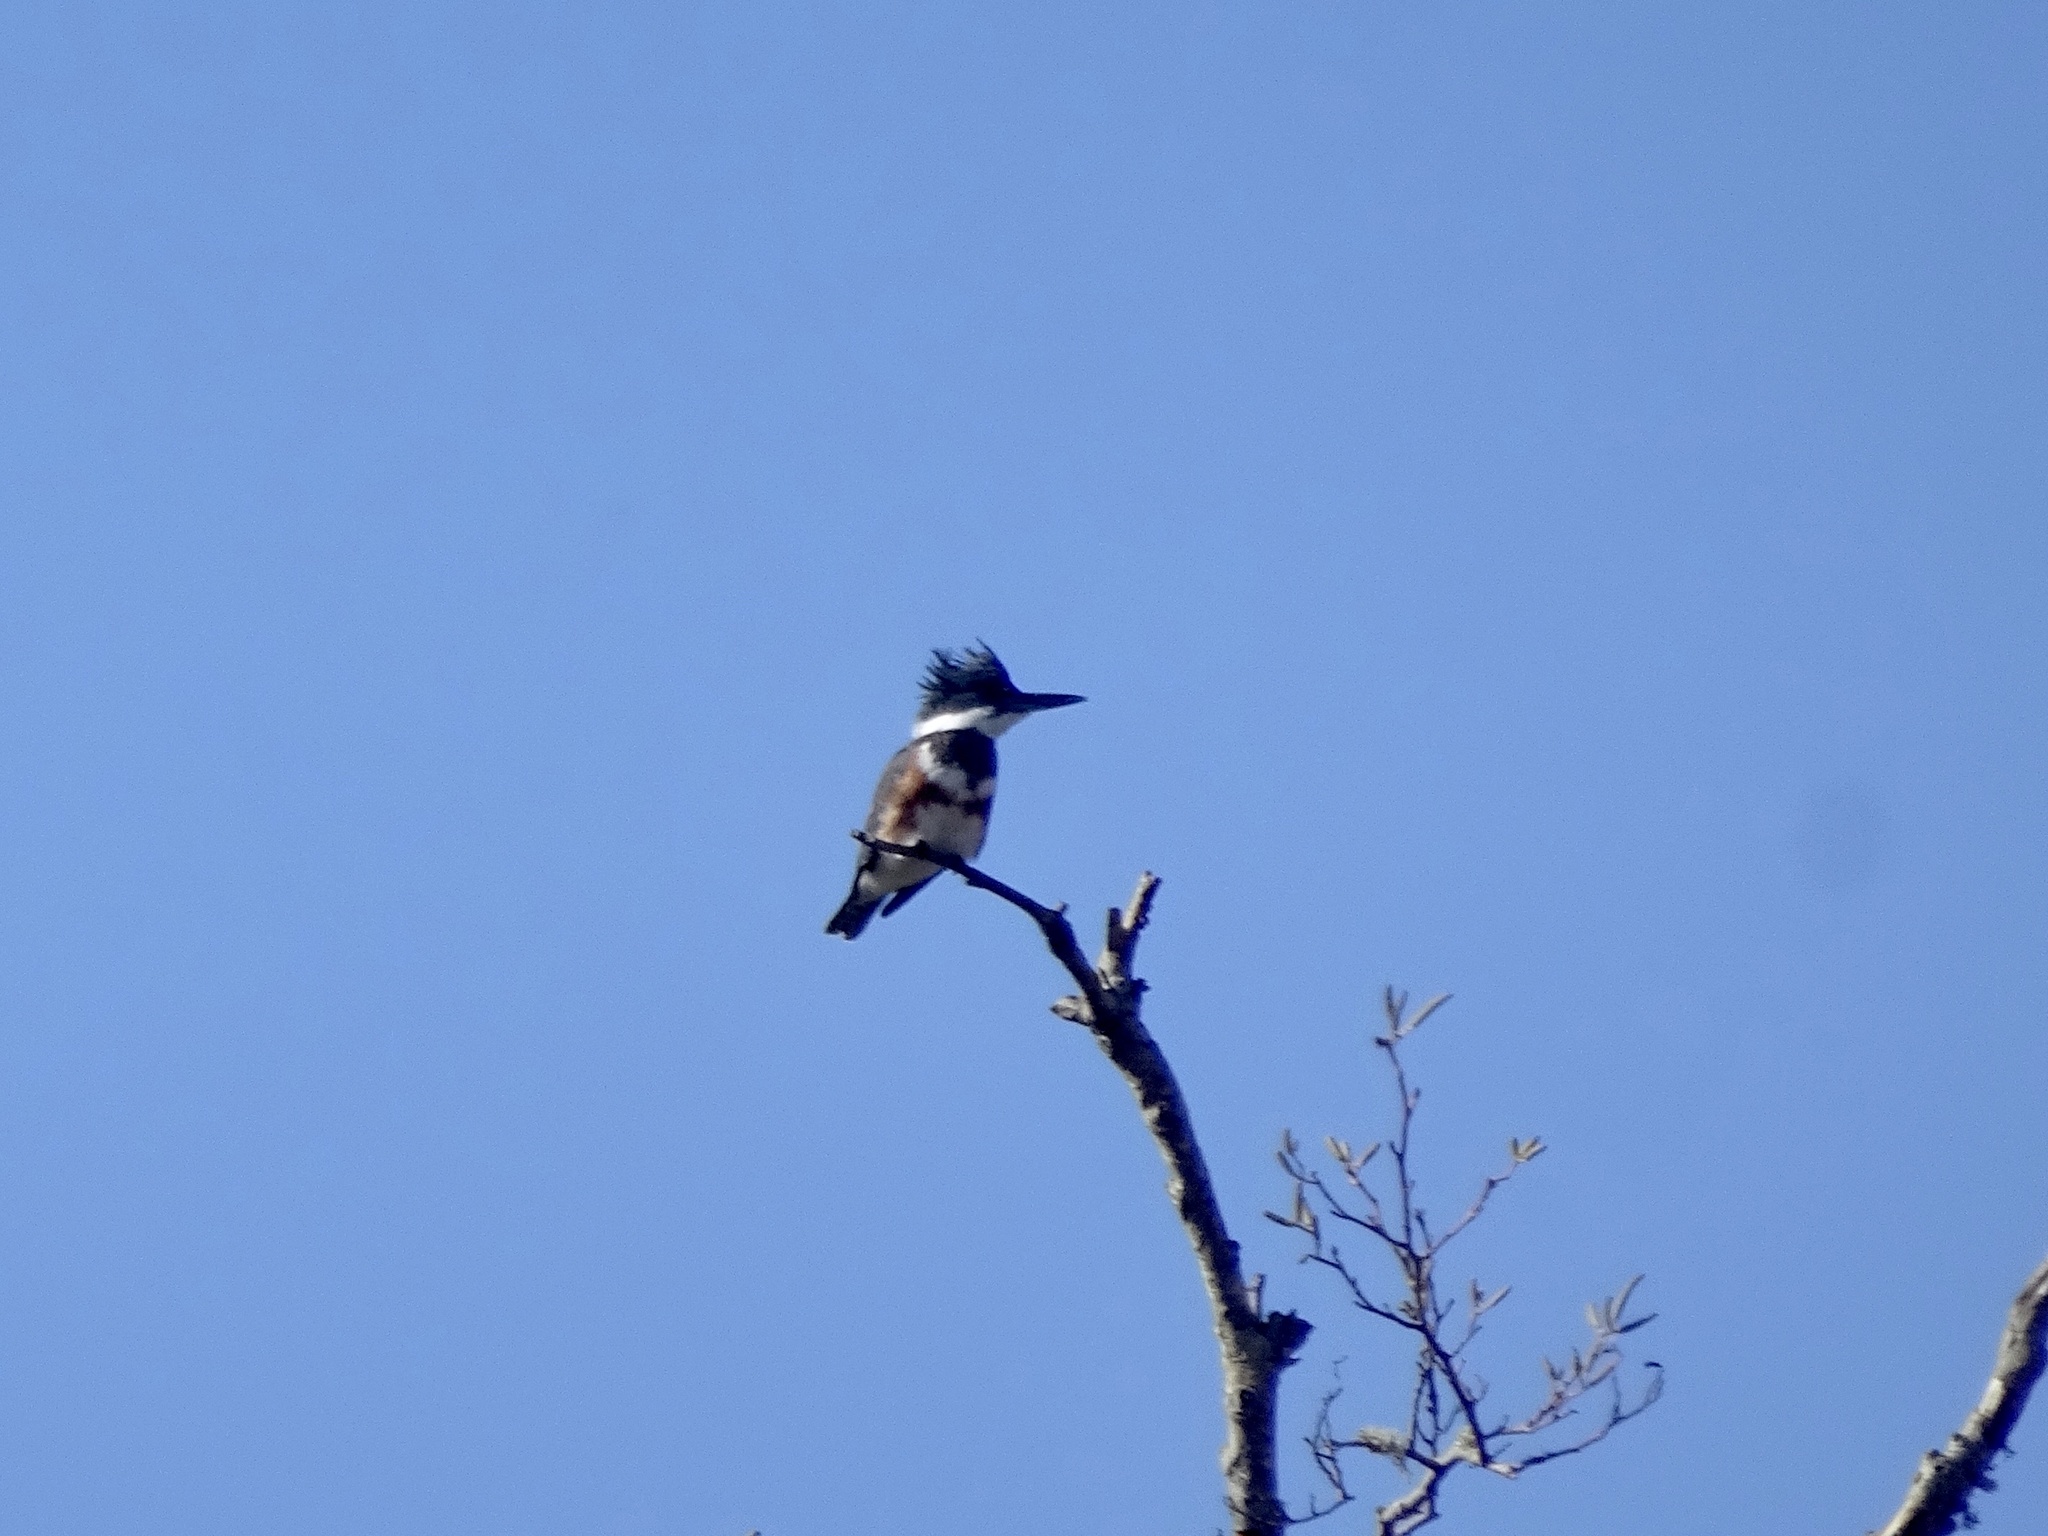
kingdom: Animalia
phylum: Chordata
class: Aves
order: Coraciiformes
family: Alcedinidae
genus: Megaceryle
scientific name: Megaceryle alcyon
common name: Belted kingfisher
